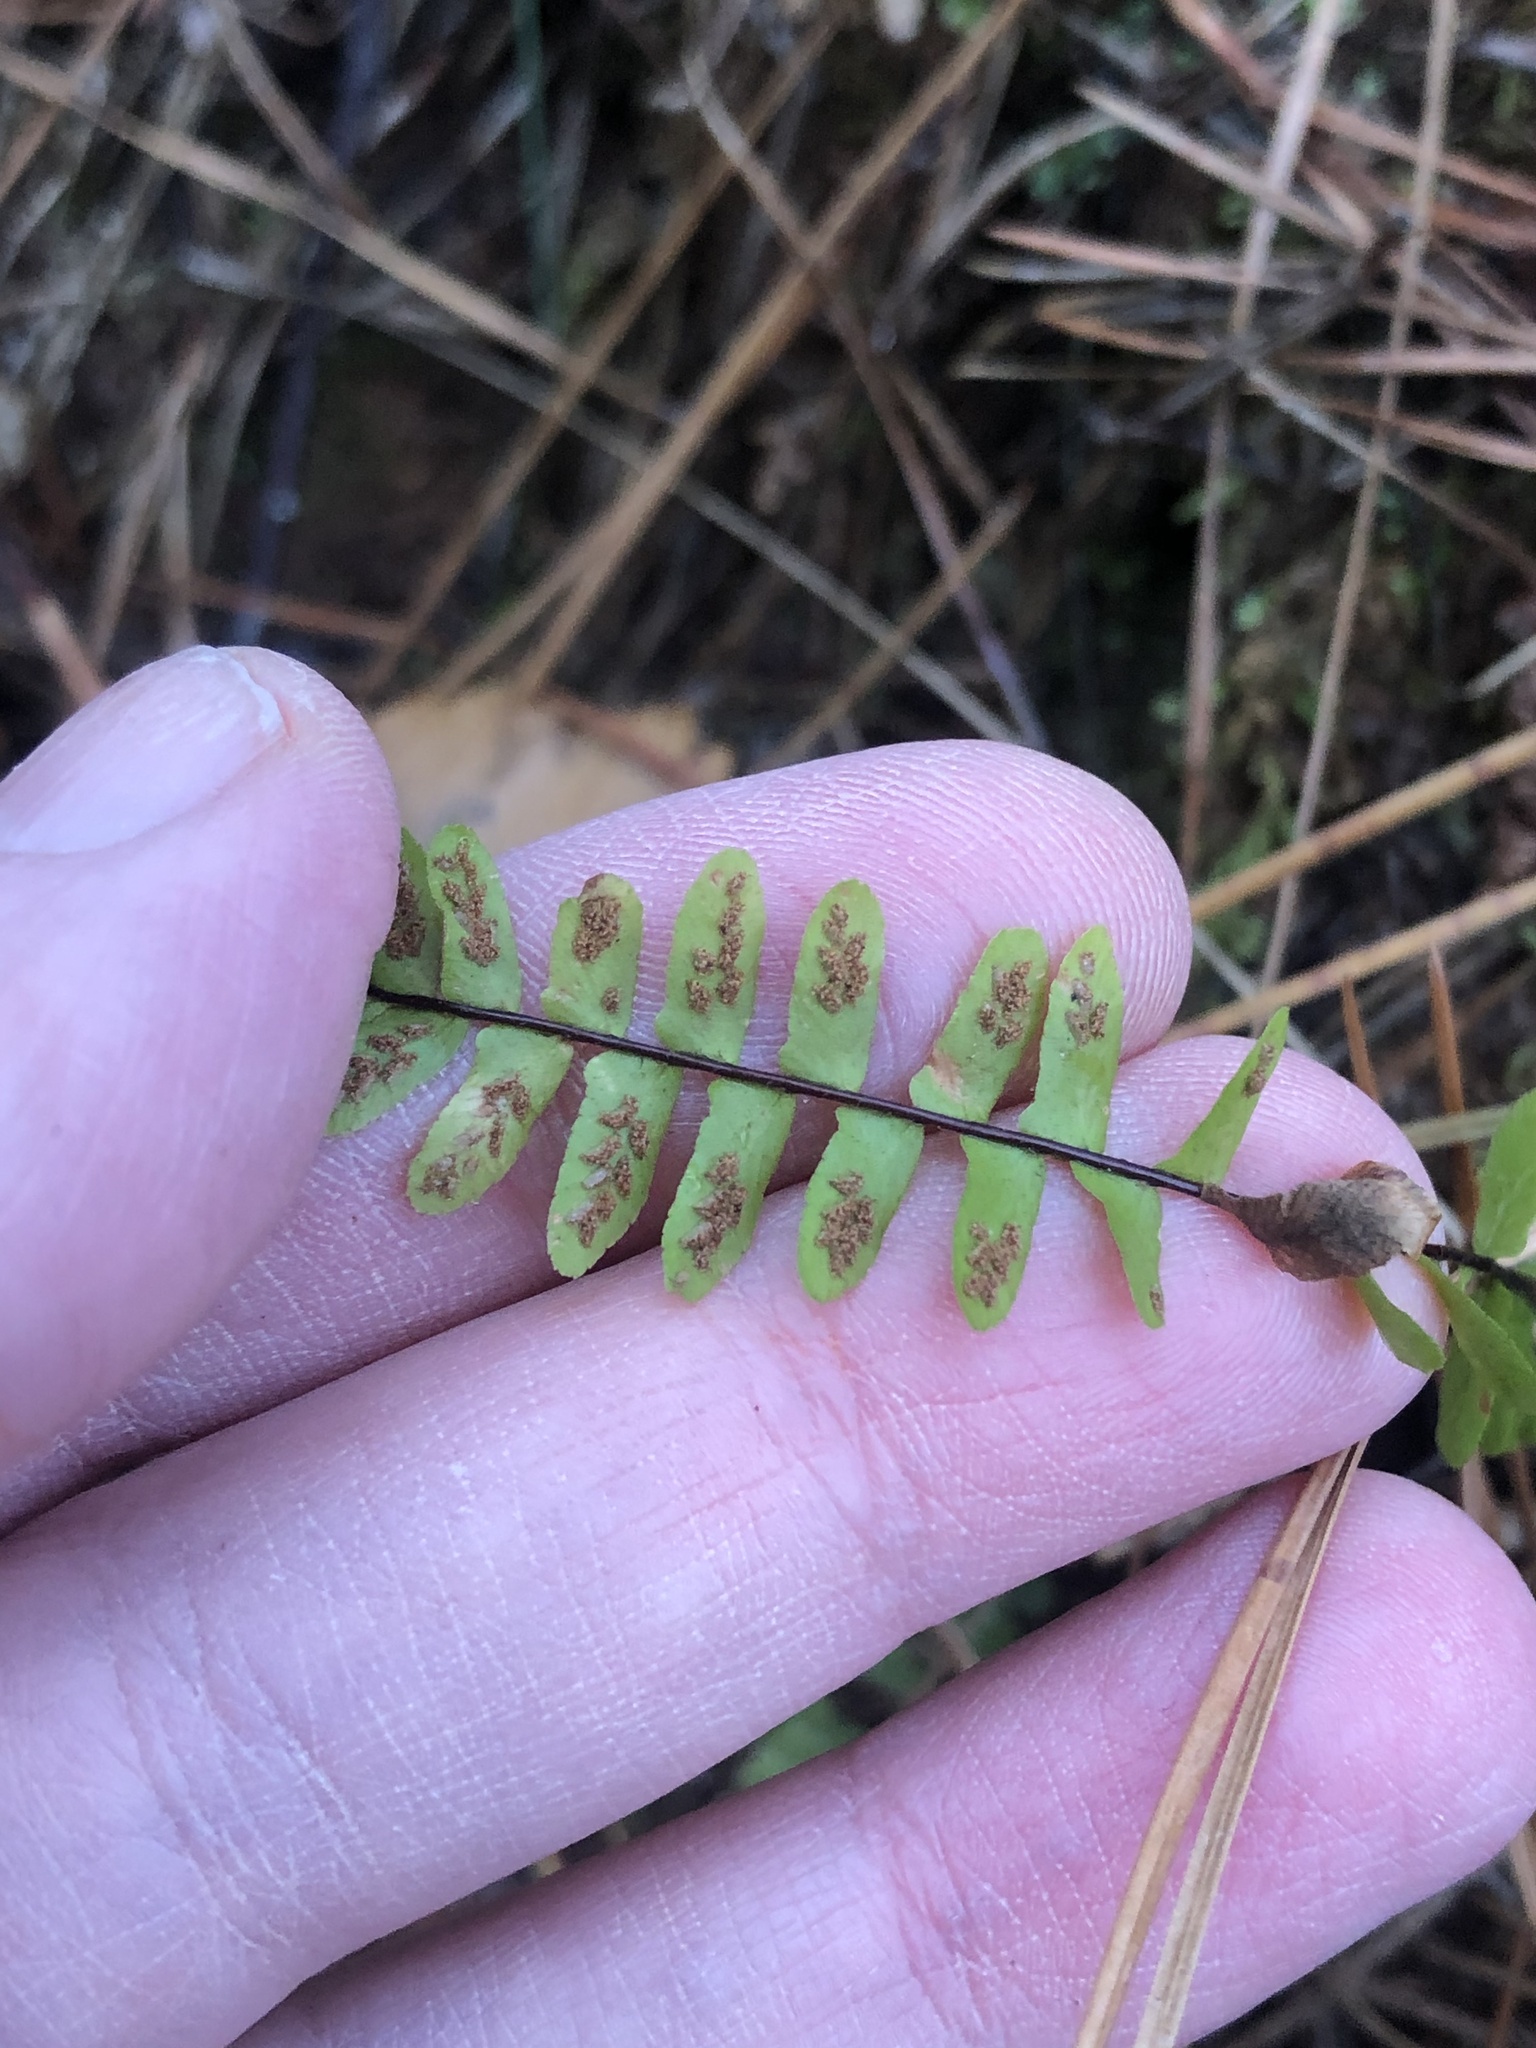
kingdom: Plantae
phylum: Tracheophyta
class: Polypodiopsida
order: Polypodiales
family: Aspleniaceae
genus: Asplenium
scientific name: Asplenium platyneuron
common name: Ebony spleenwort
